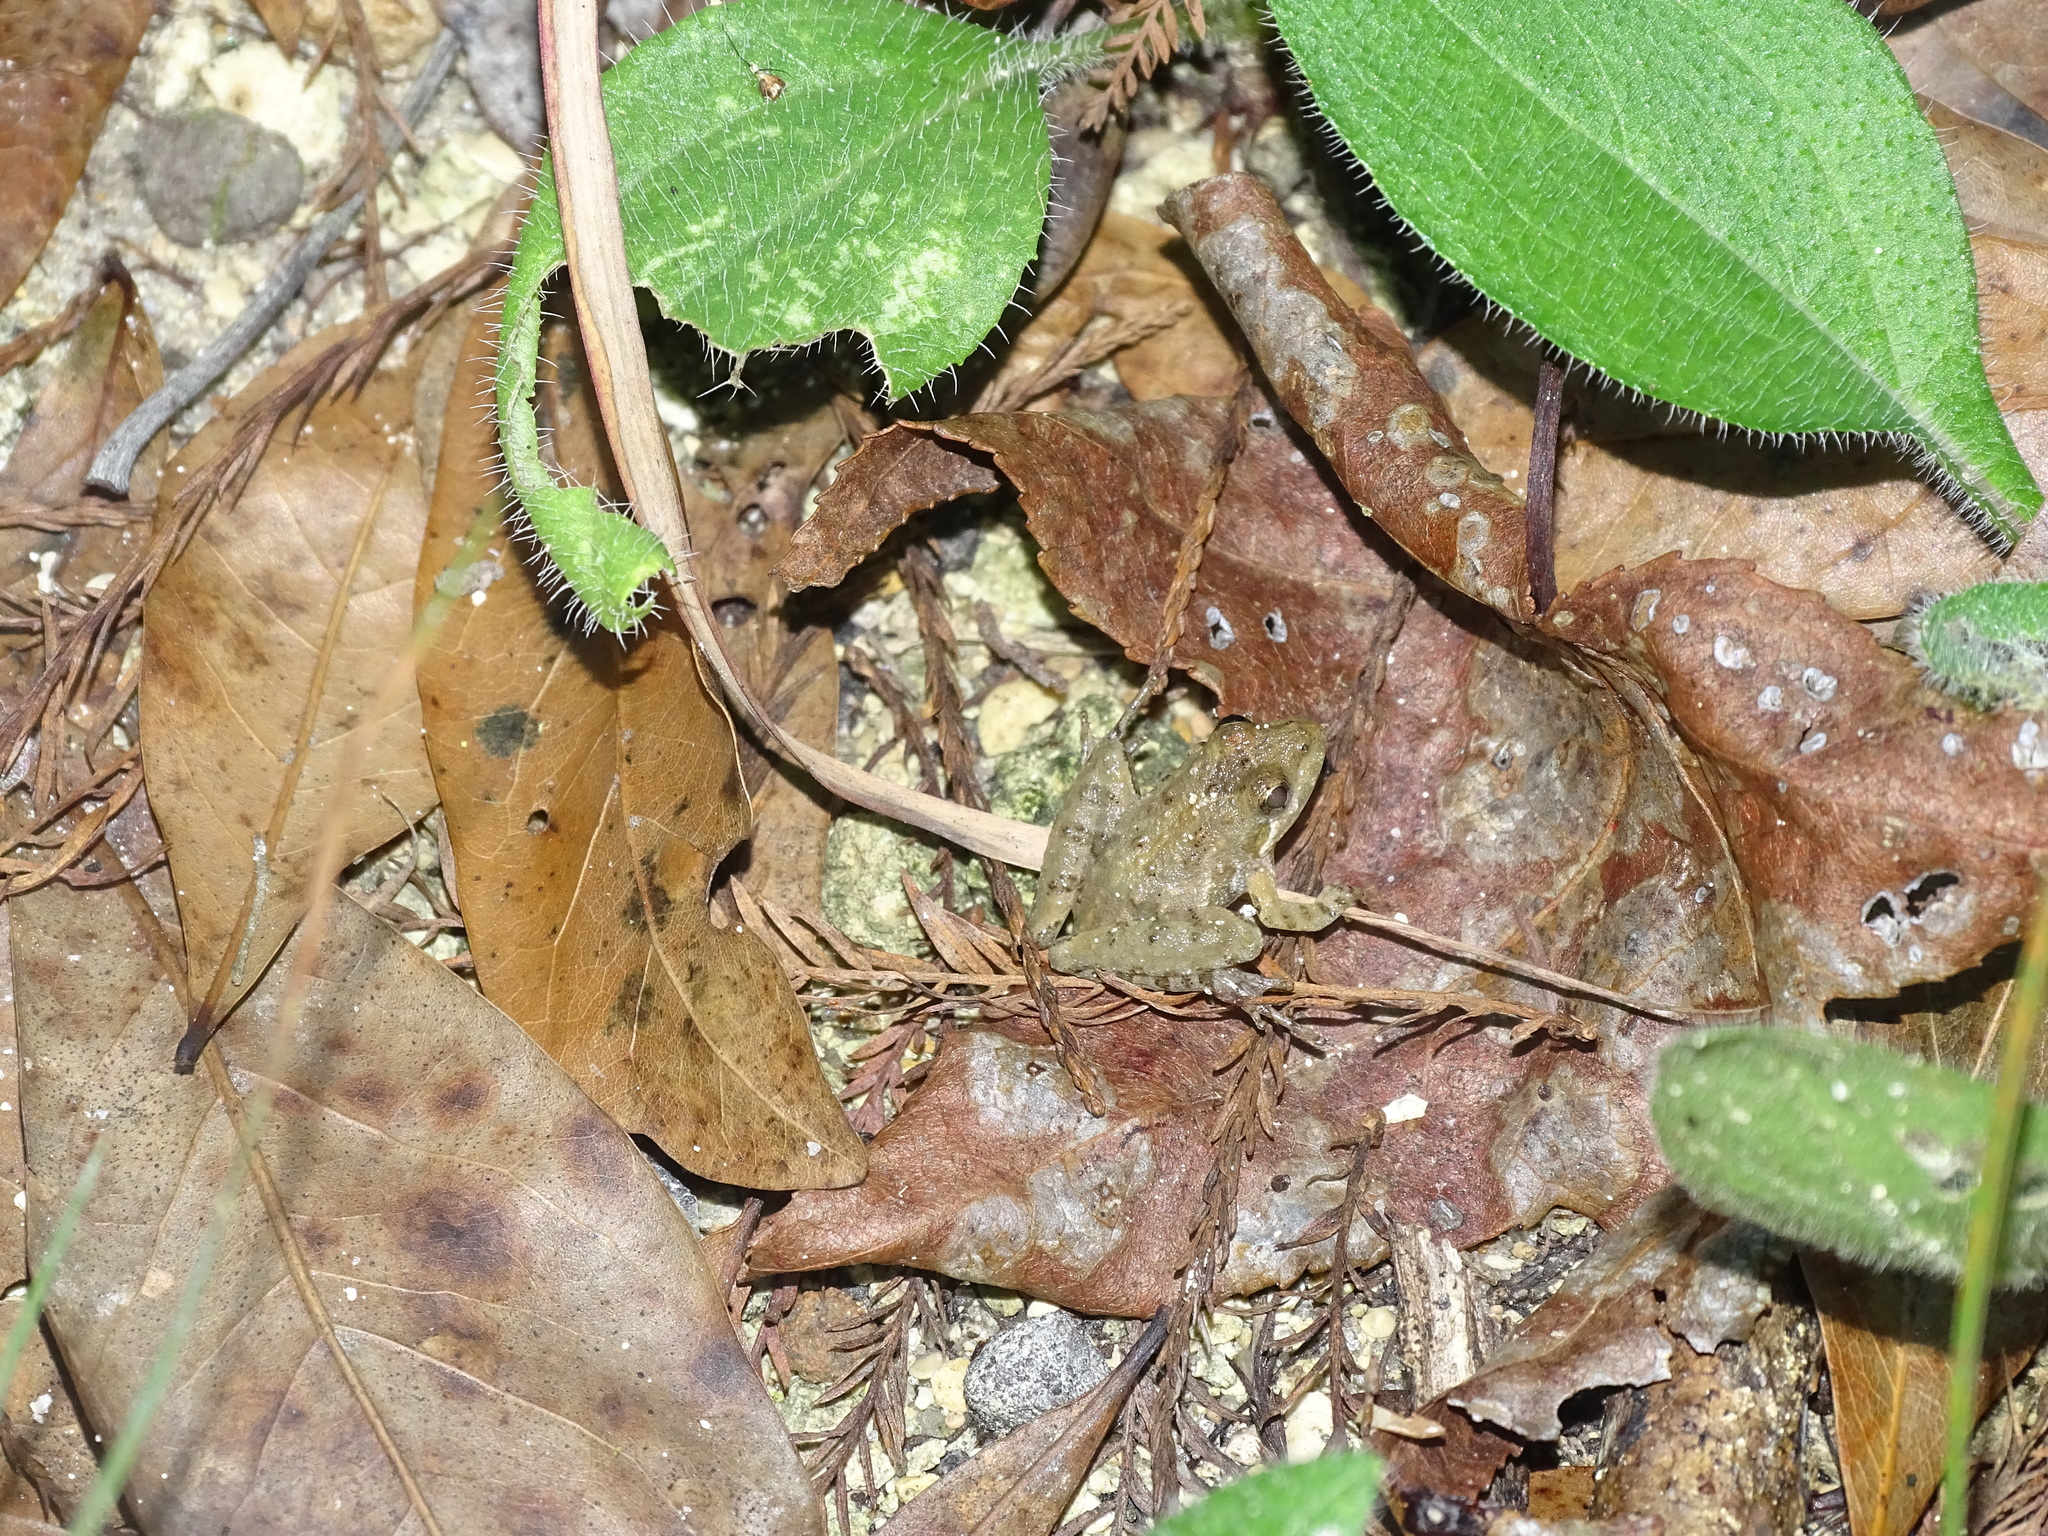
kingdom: Animalia
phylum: Chordata
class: Amphibia
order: Anura
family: Hylidae
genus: Acris
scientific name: Acris gryllus
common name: Southern cricket frog
